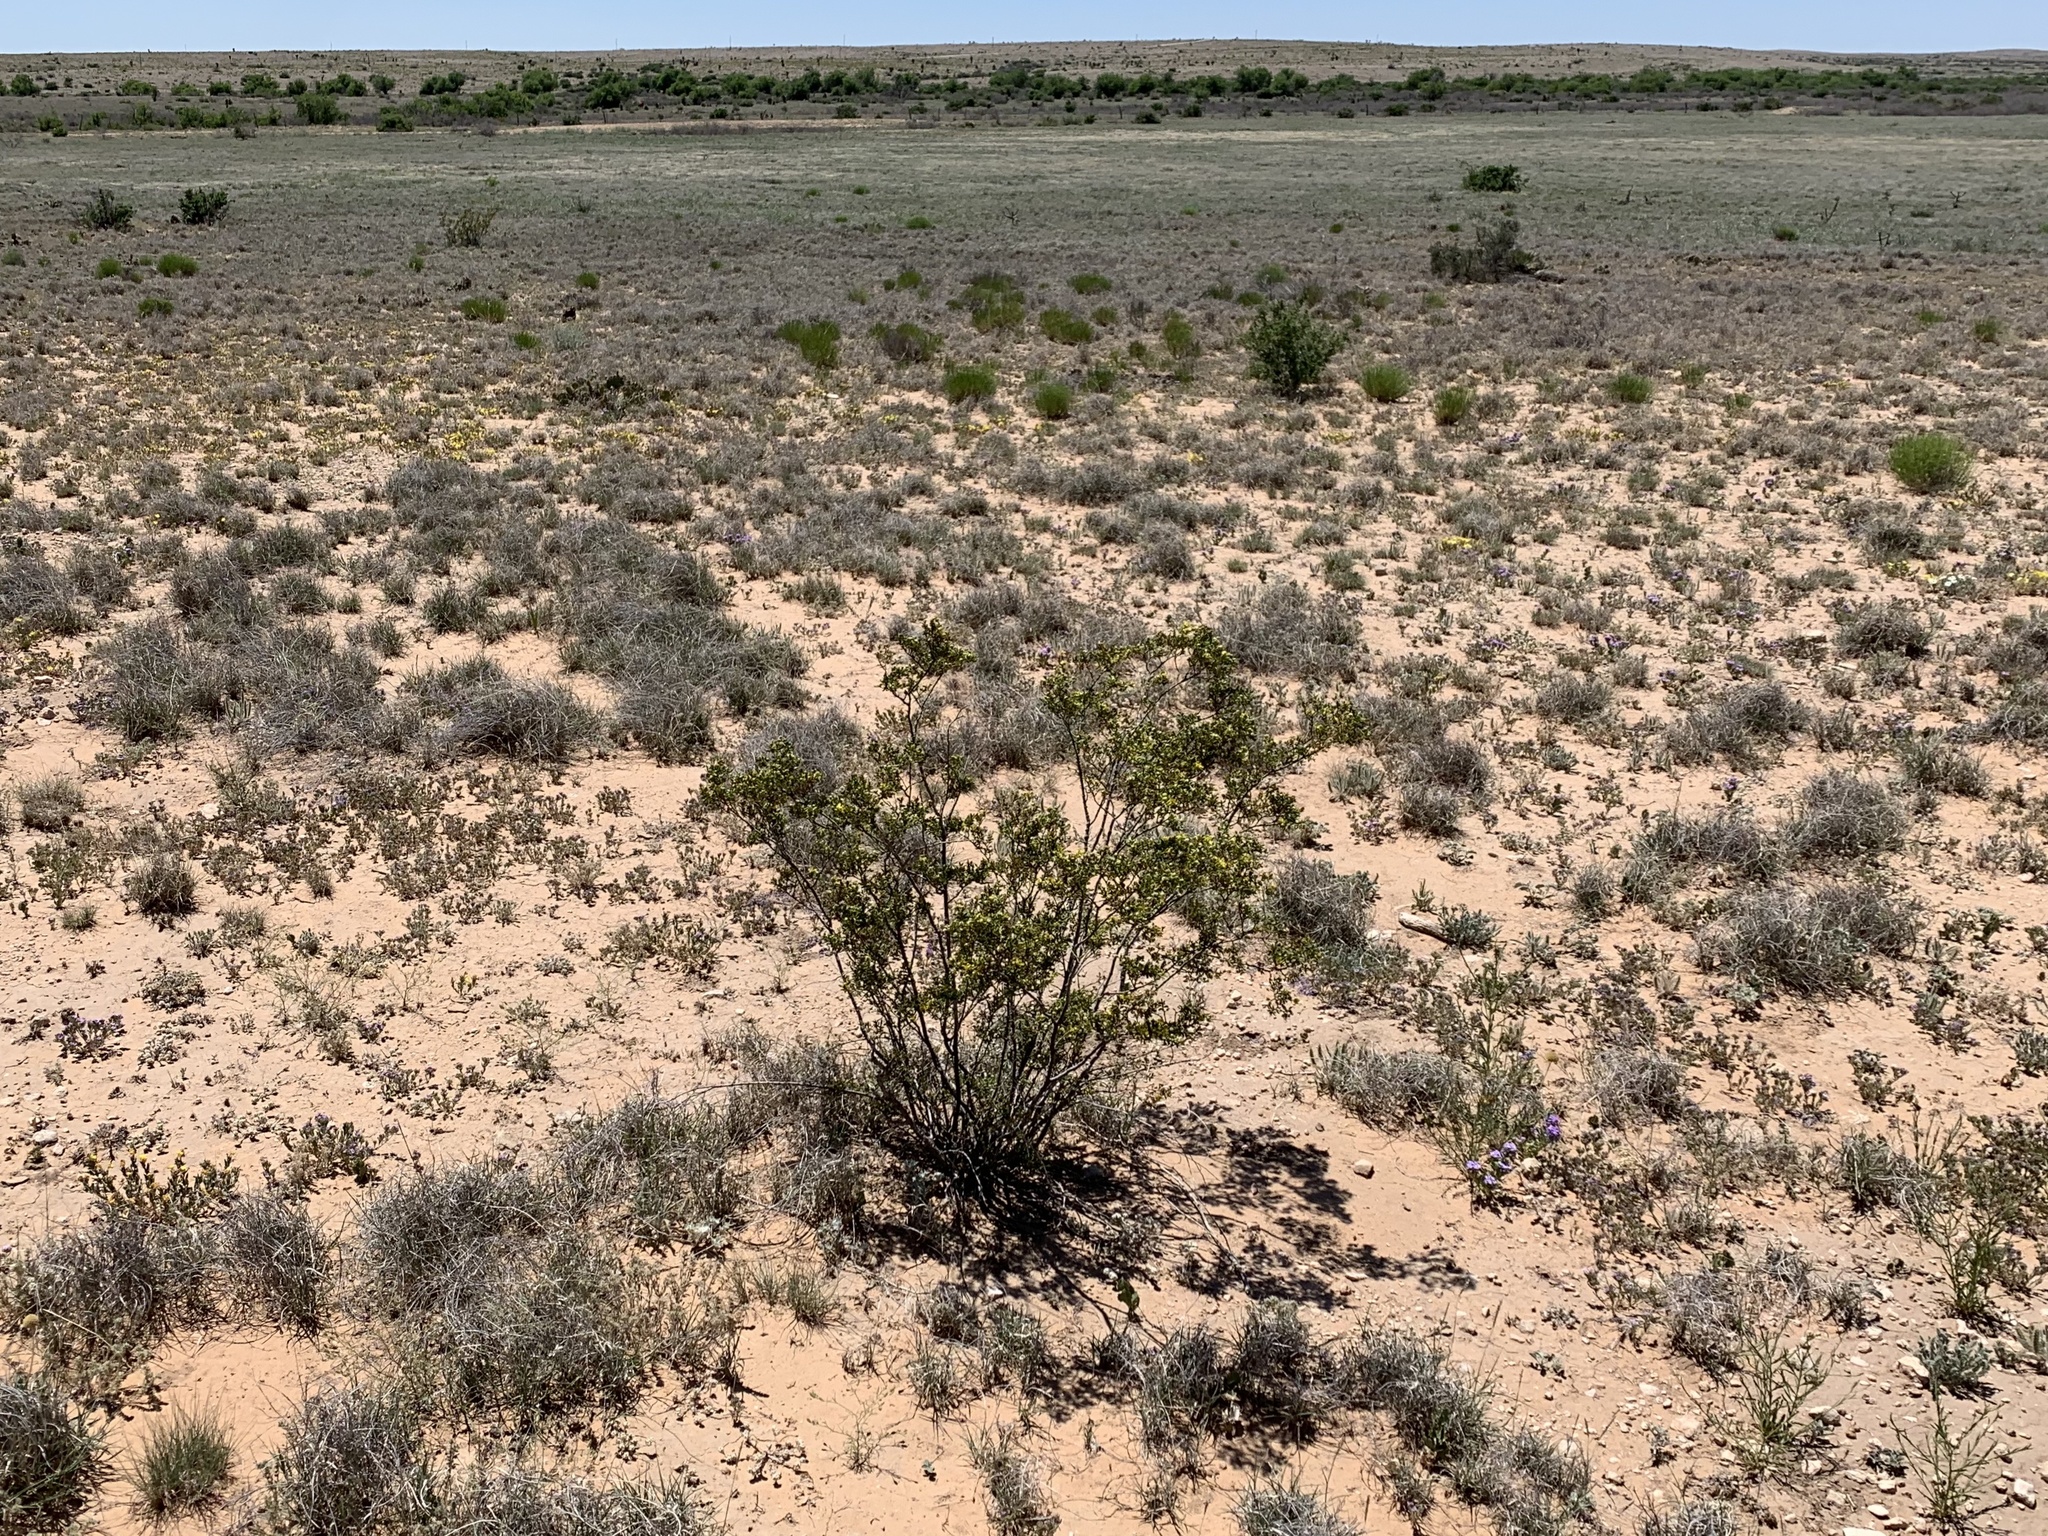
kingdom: Plantae
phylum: Tracheophyta
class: Magnoliopsida
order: Zygophyllales
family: Zygophyllaceae
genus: Larrea
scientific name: Larrea tridentata
